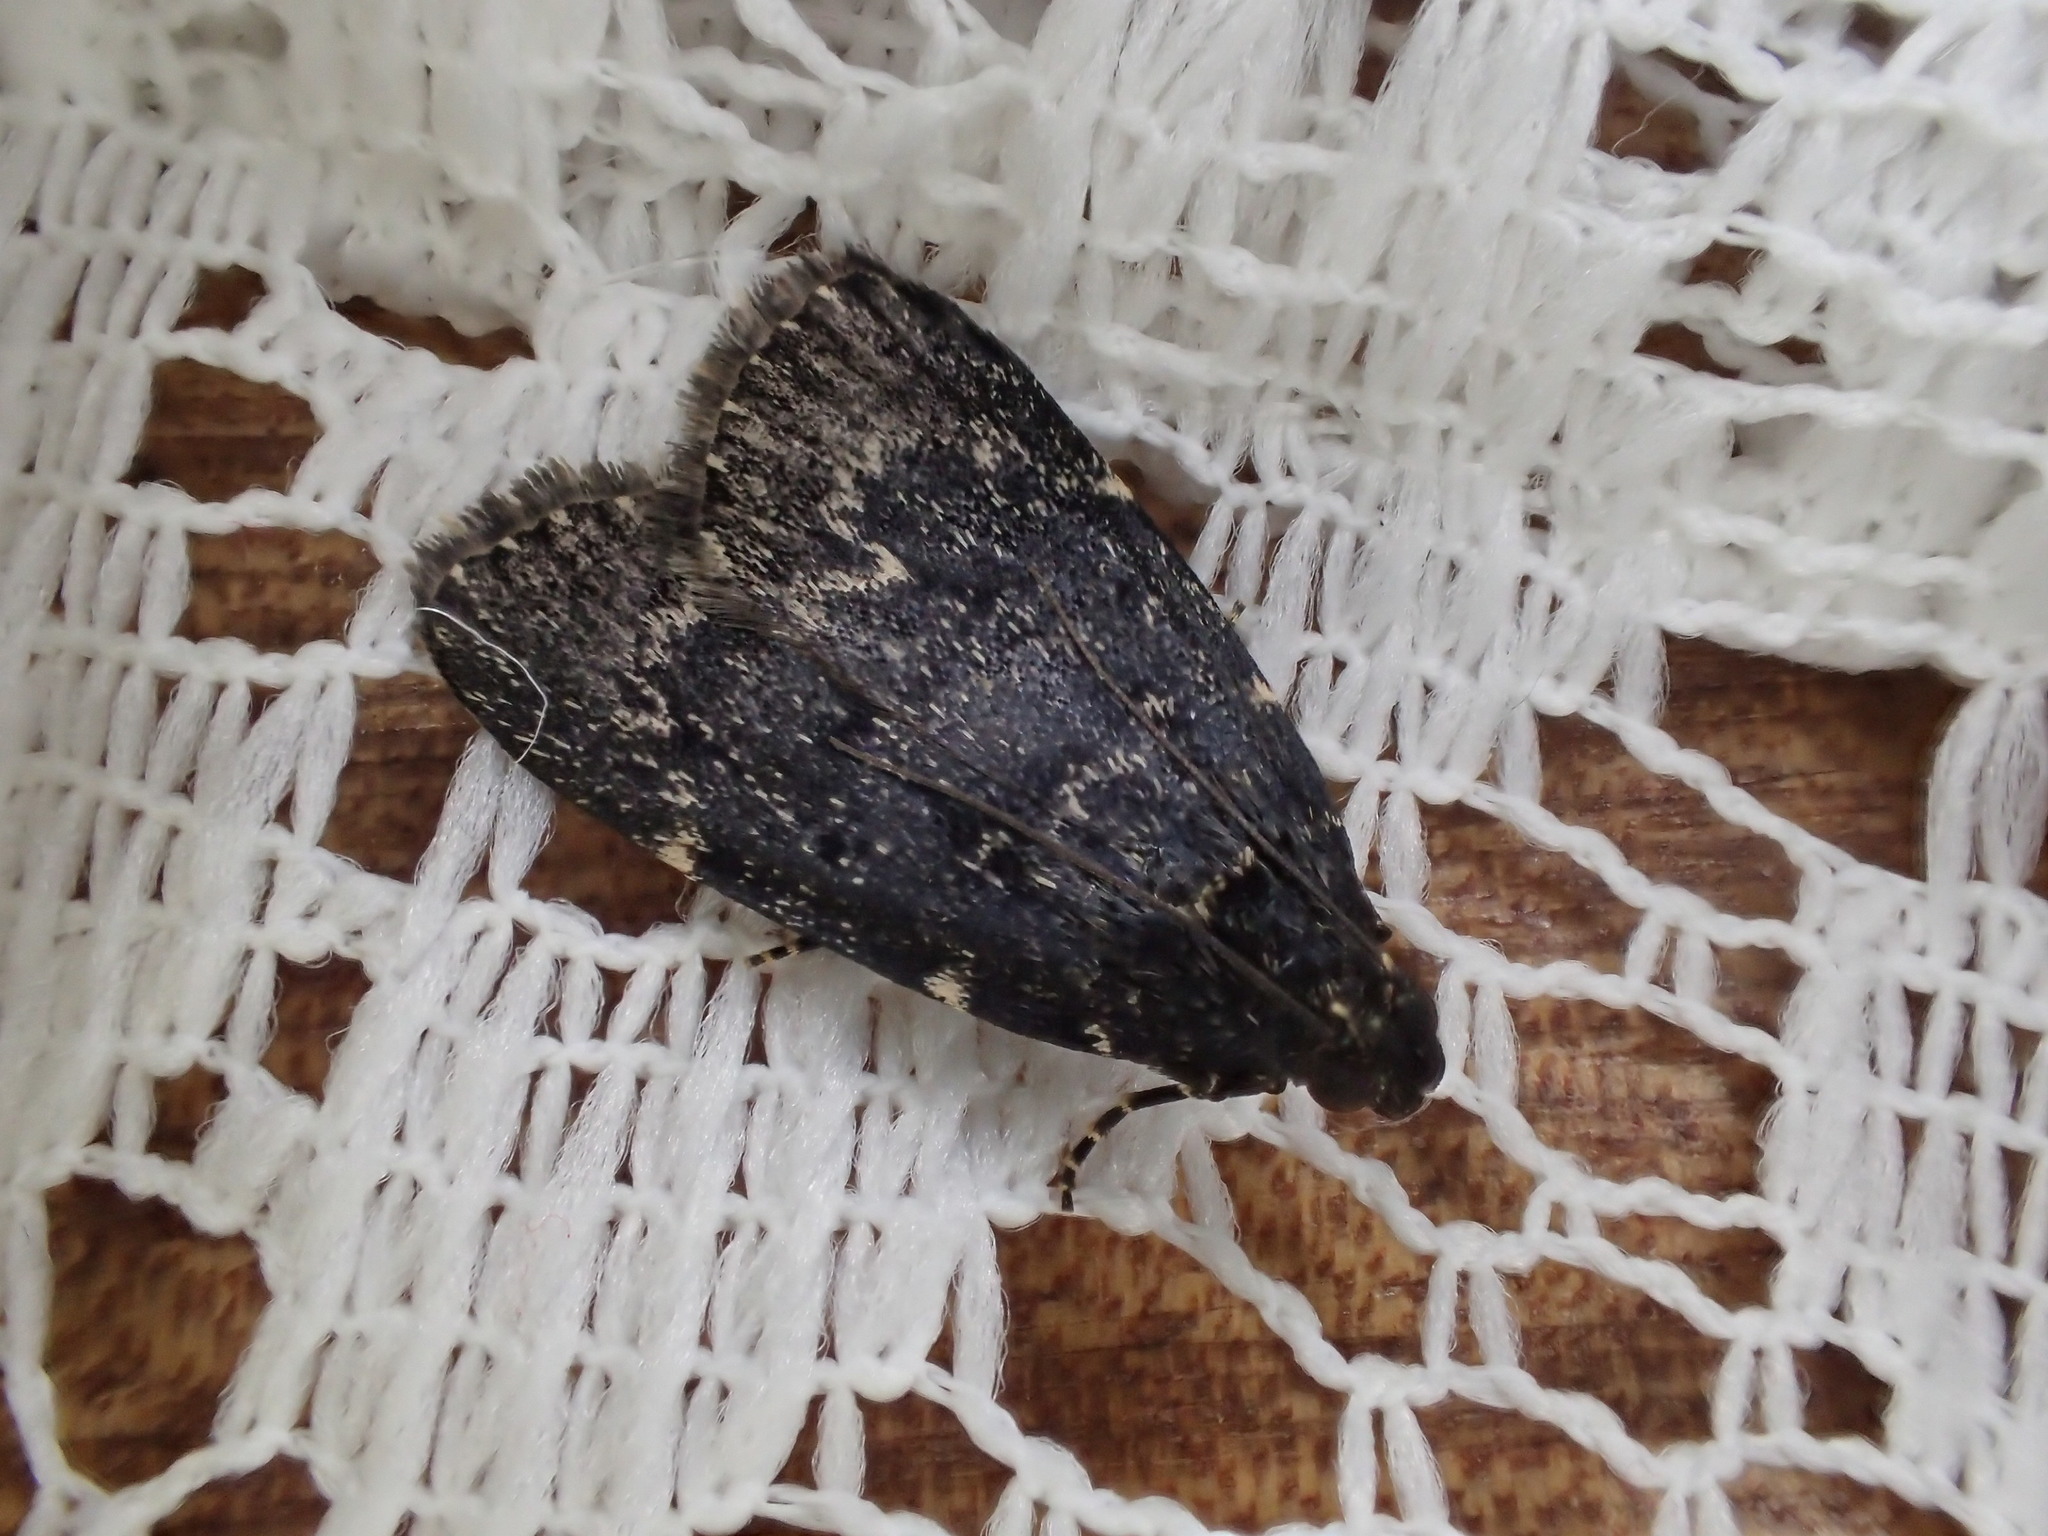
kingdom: Animalia
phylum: Arthropoda
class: Insecta
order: Lepidoptera
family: Pyralidae
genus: Stericta
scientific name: Stericta carbonalis
